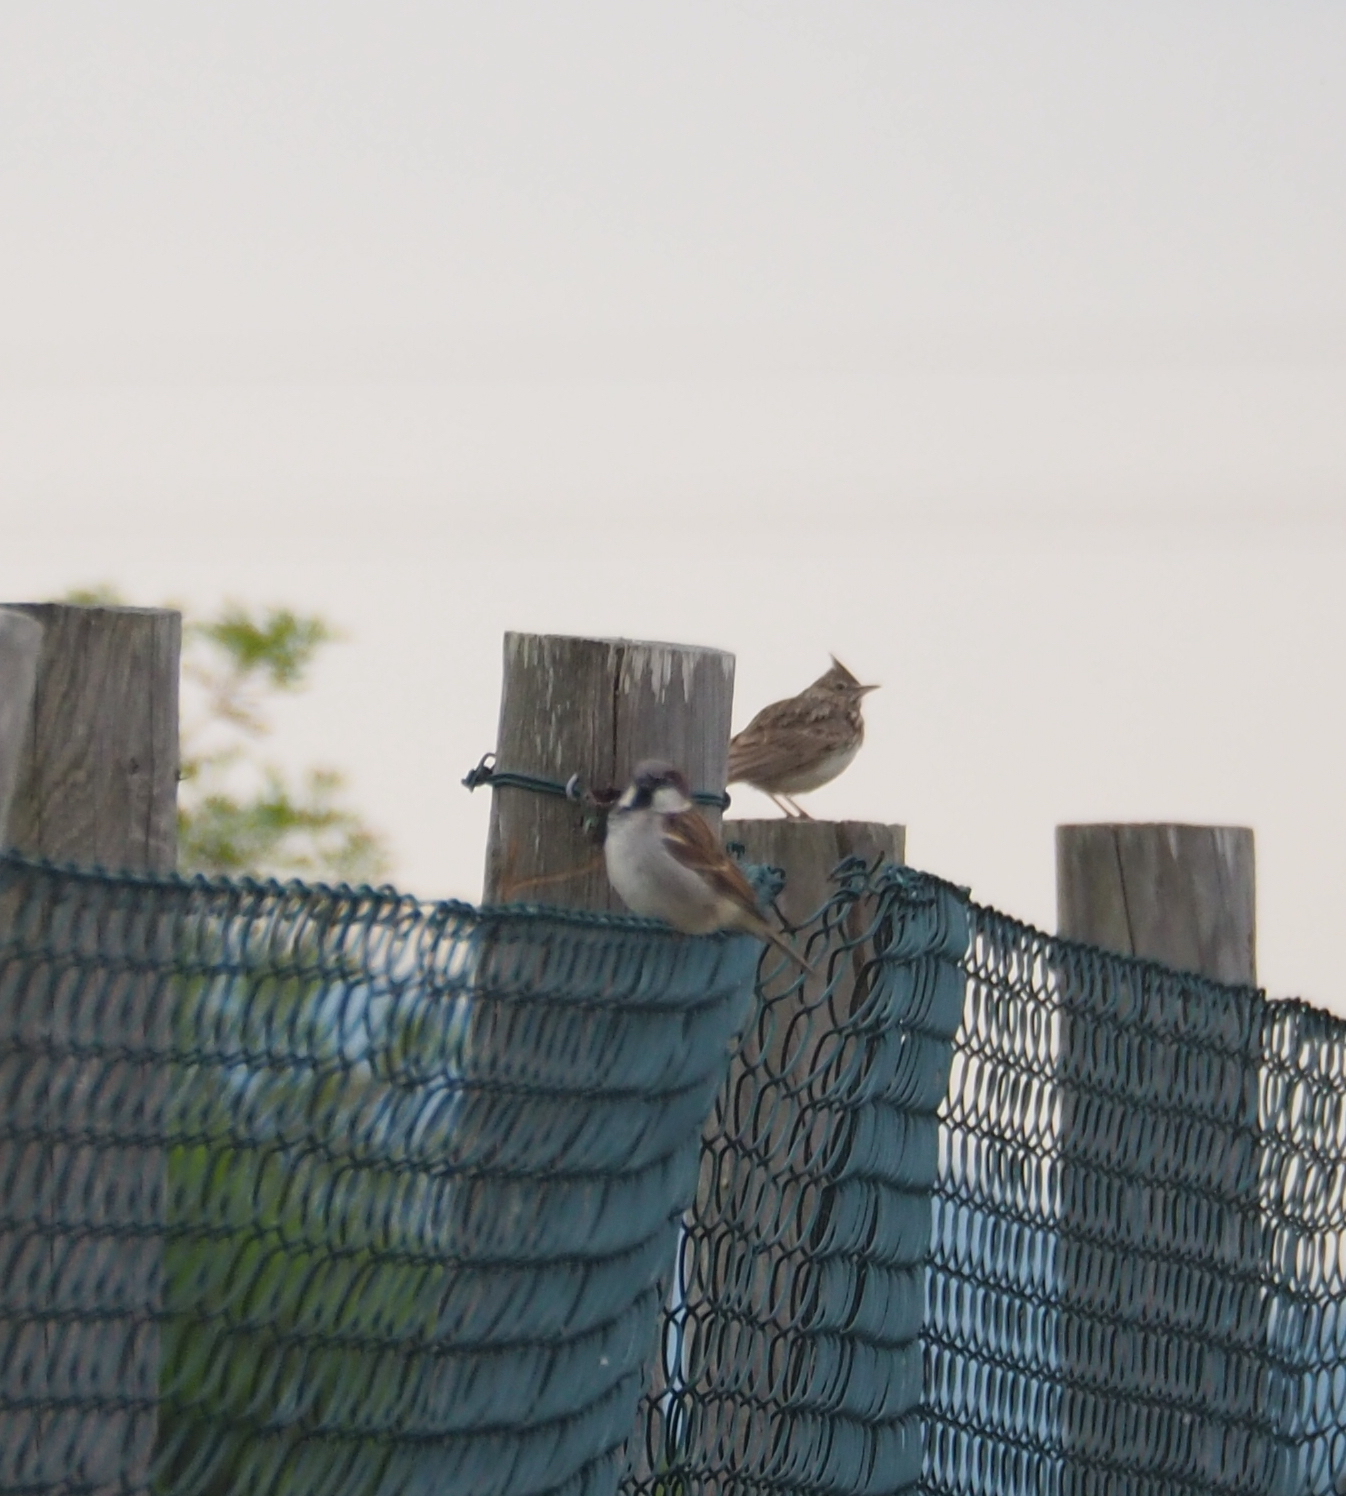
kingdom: Animalia
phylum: Chordata
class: Aves
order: Passeriformes
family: Passeridae
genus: Passer
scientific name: Passer domesticus
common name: House sparrow
